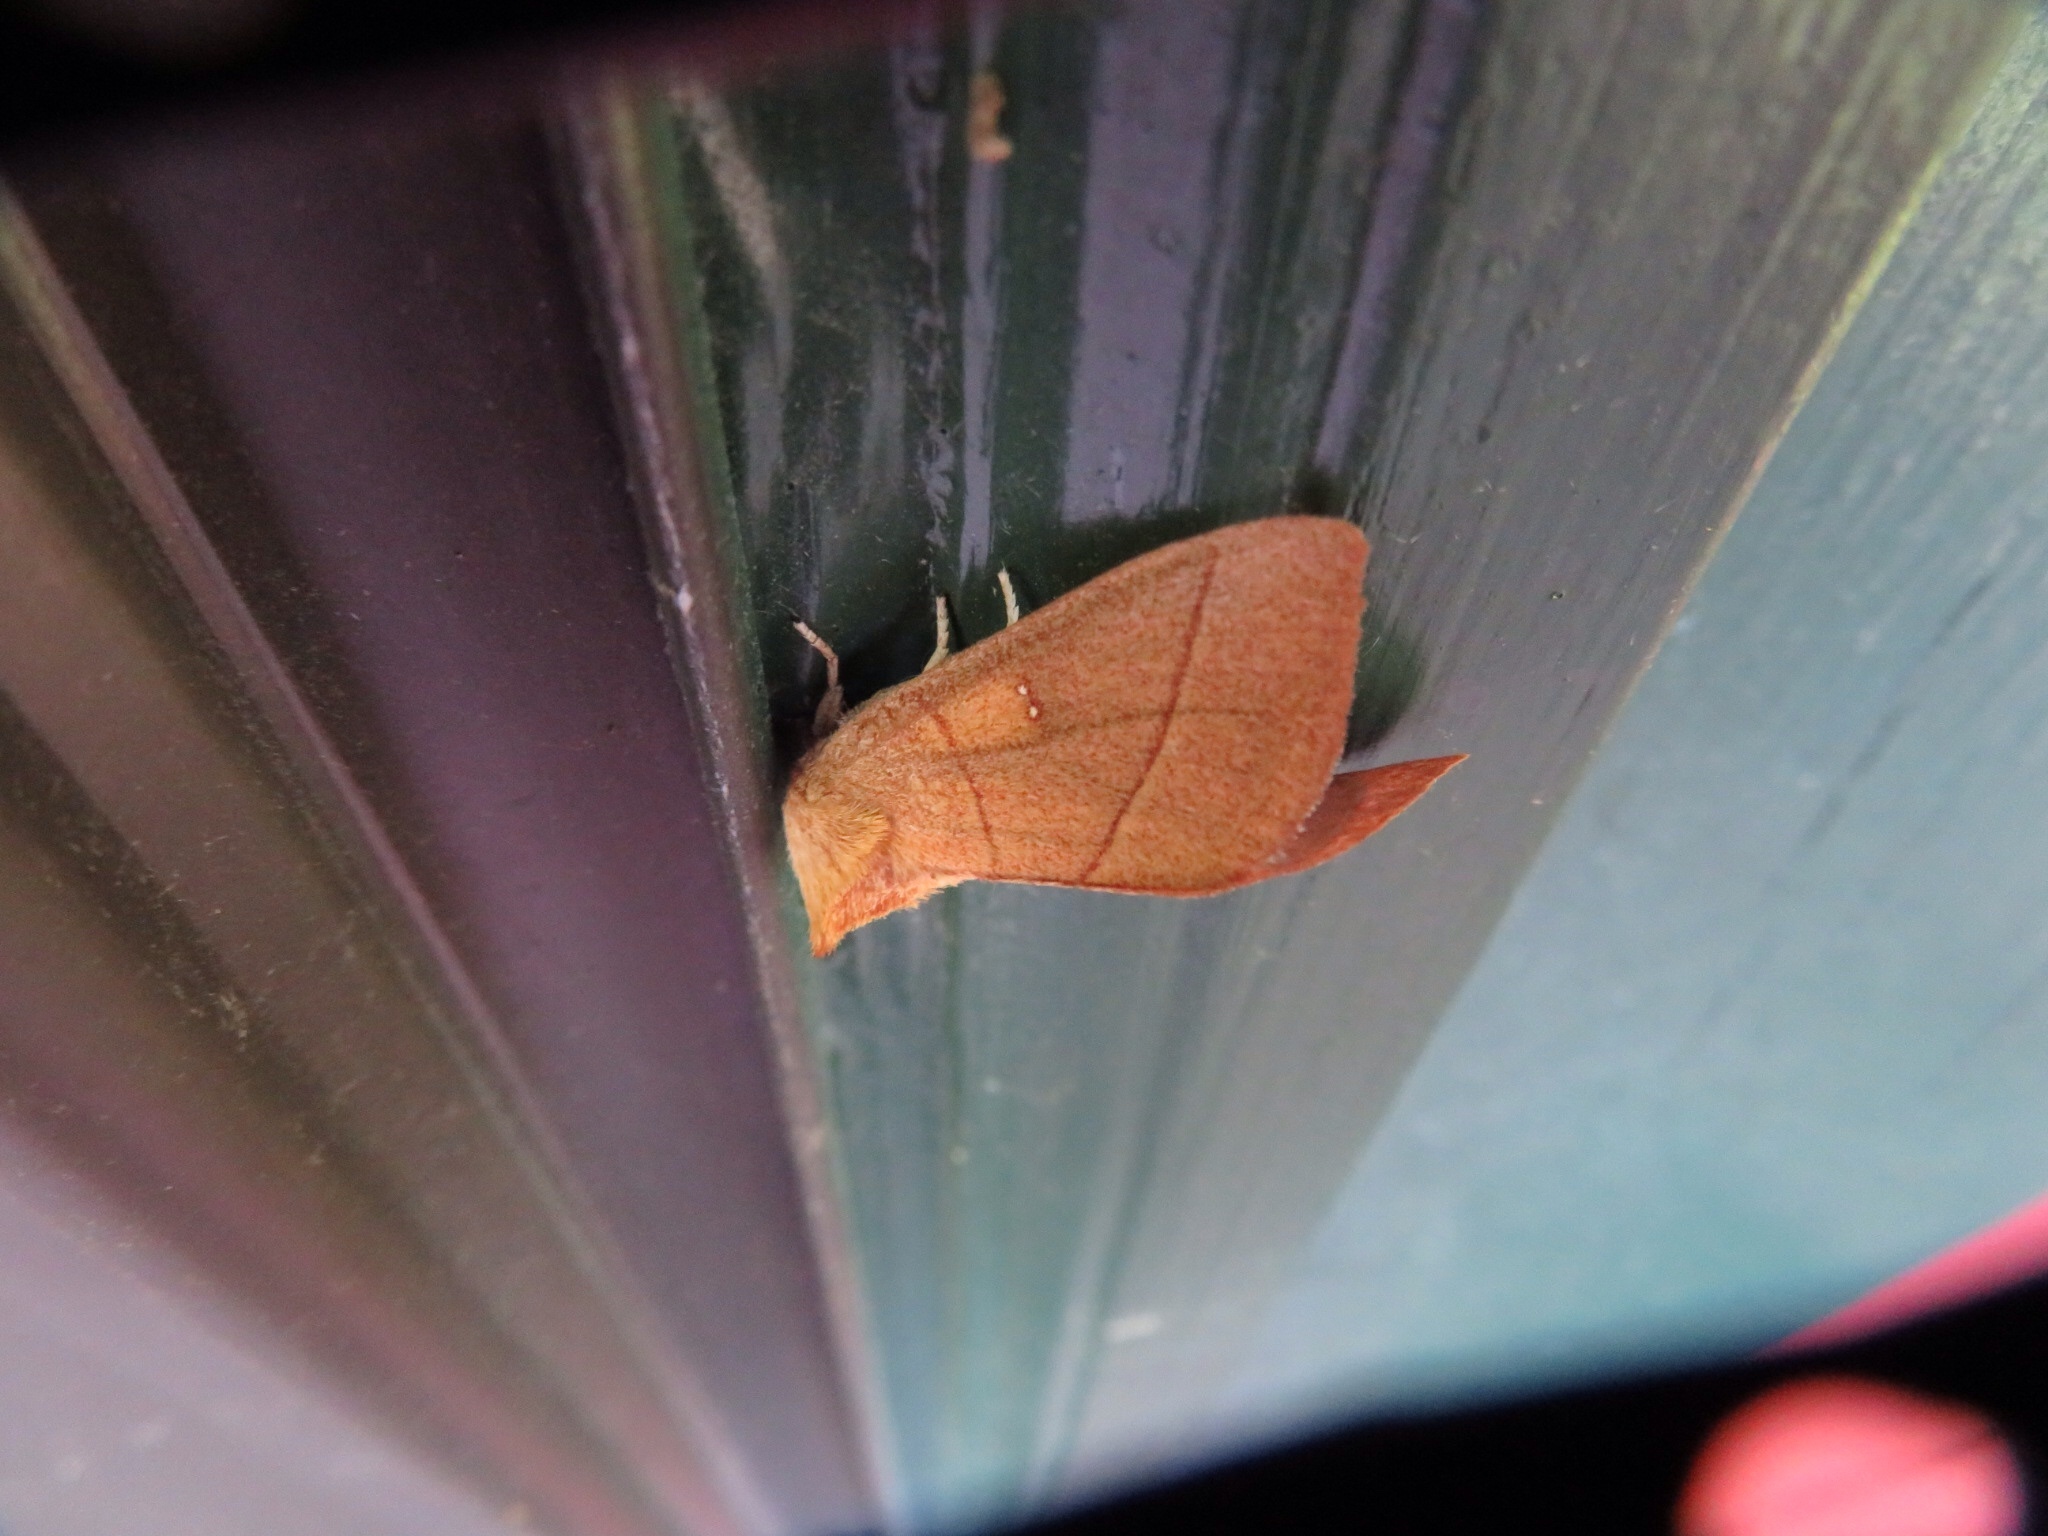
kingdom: Animalia
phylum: Arthropoda
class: Insecta
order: Lepidoptera
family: Notodontidae
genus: Nadata
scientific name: Nadata gibbosa
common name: White-dotted prominent
